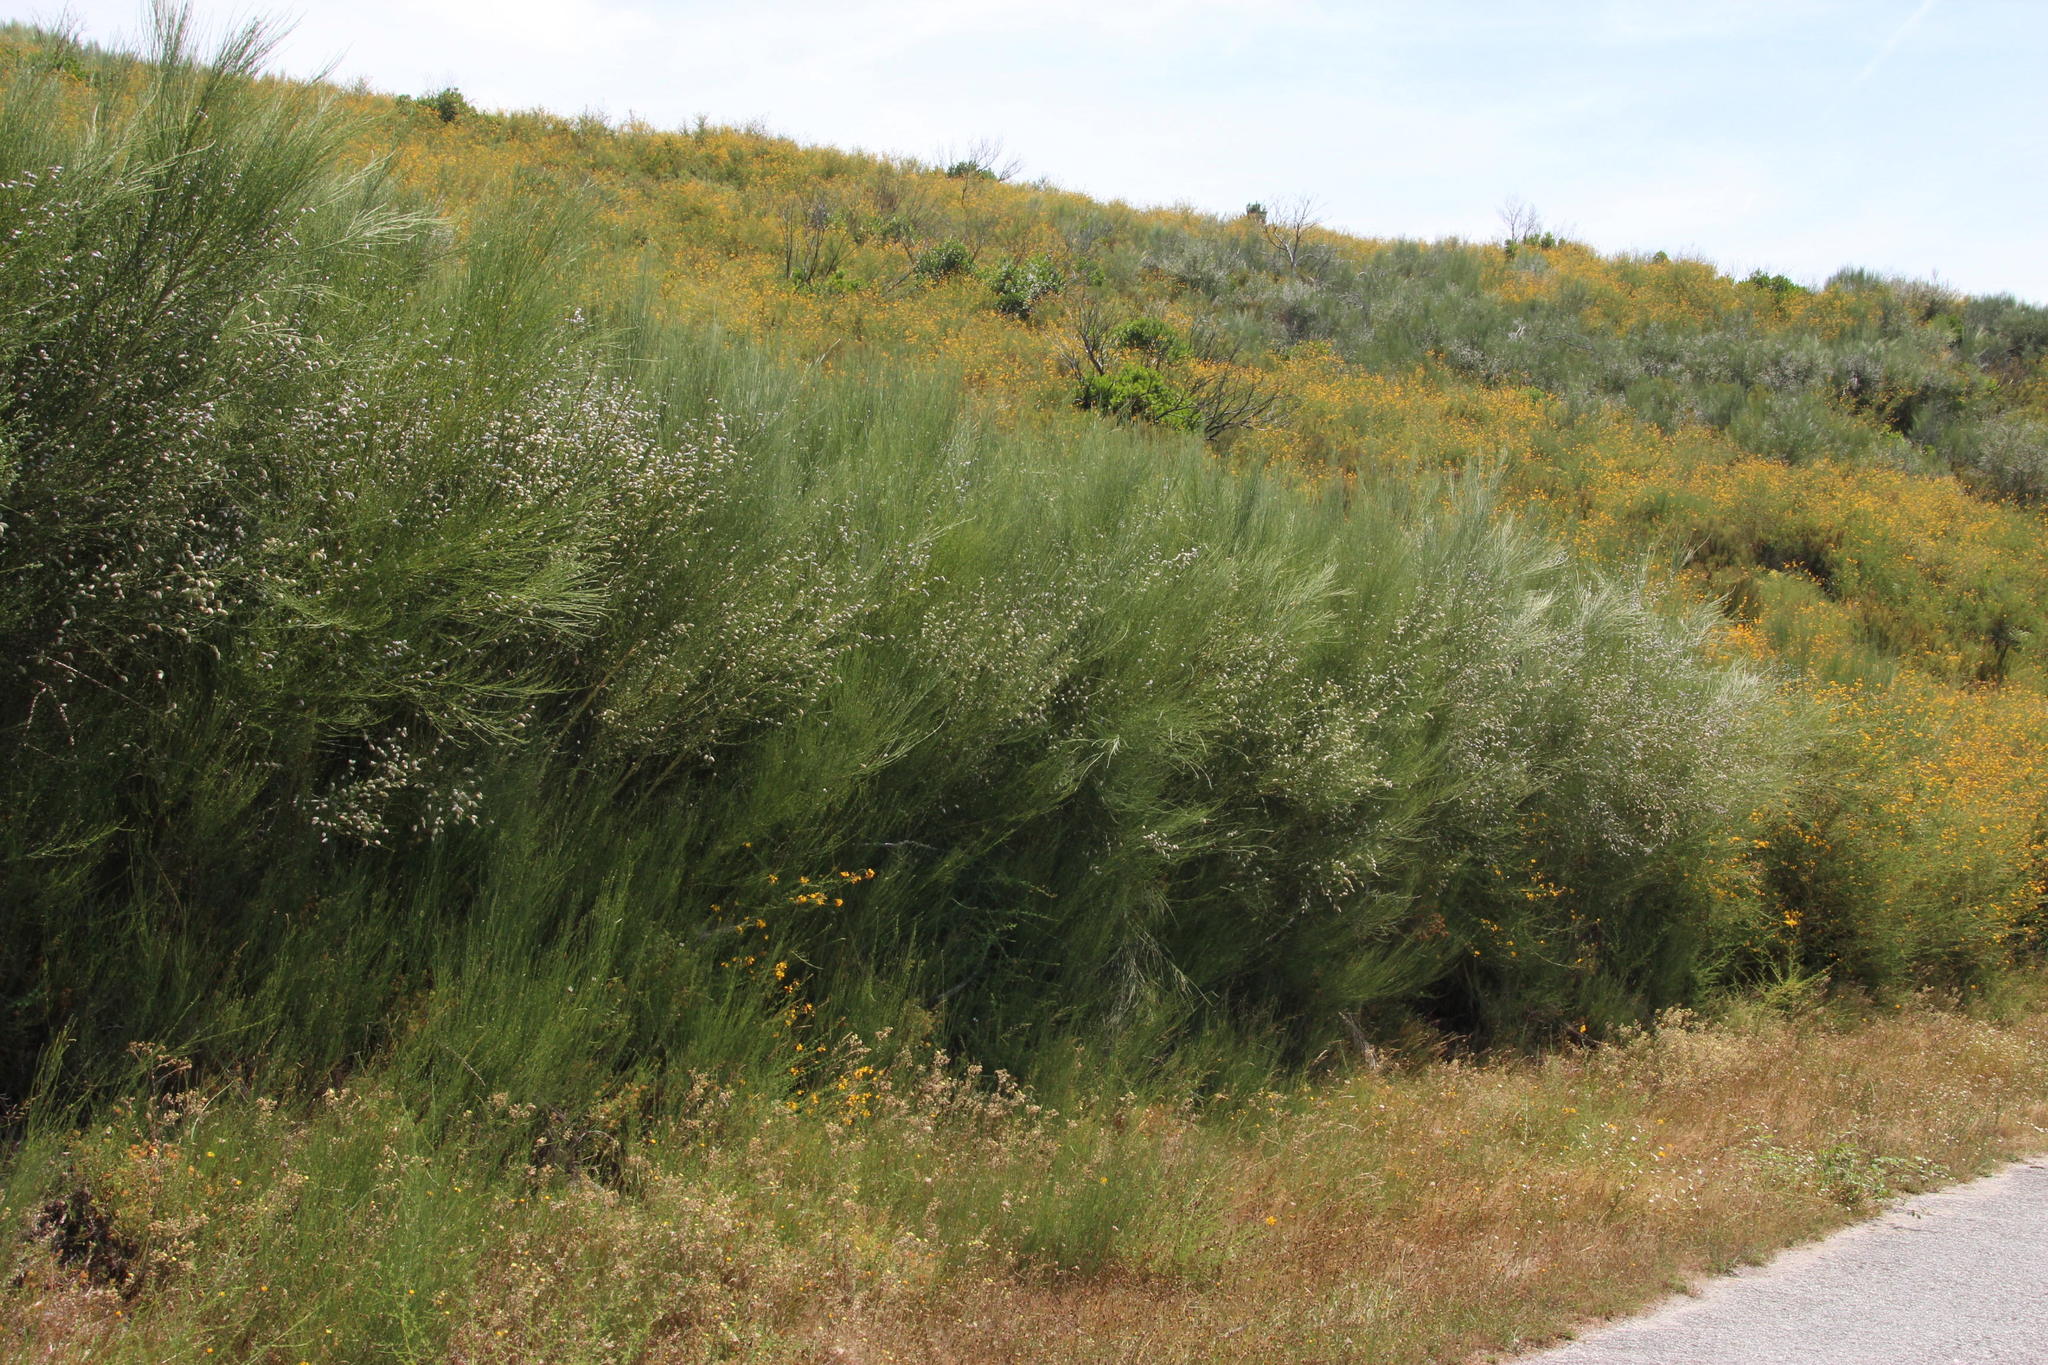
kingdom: Plantae
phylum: Tracheophyta
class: Magnoliopsida
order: Fabales
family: Fabaceae
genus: Cytisus
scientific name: Cytisus striatus
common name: Hairy-fruited broom
